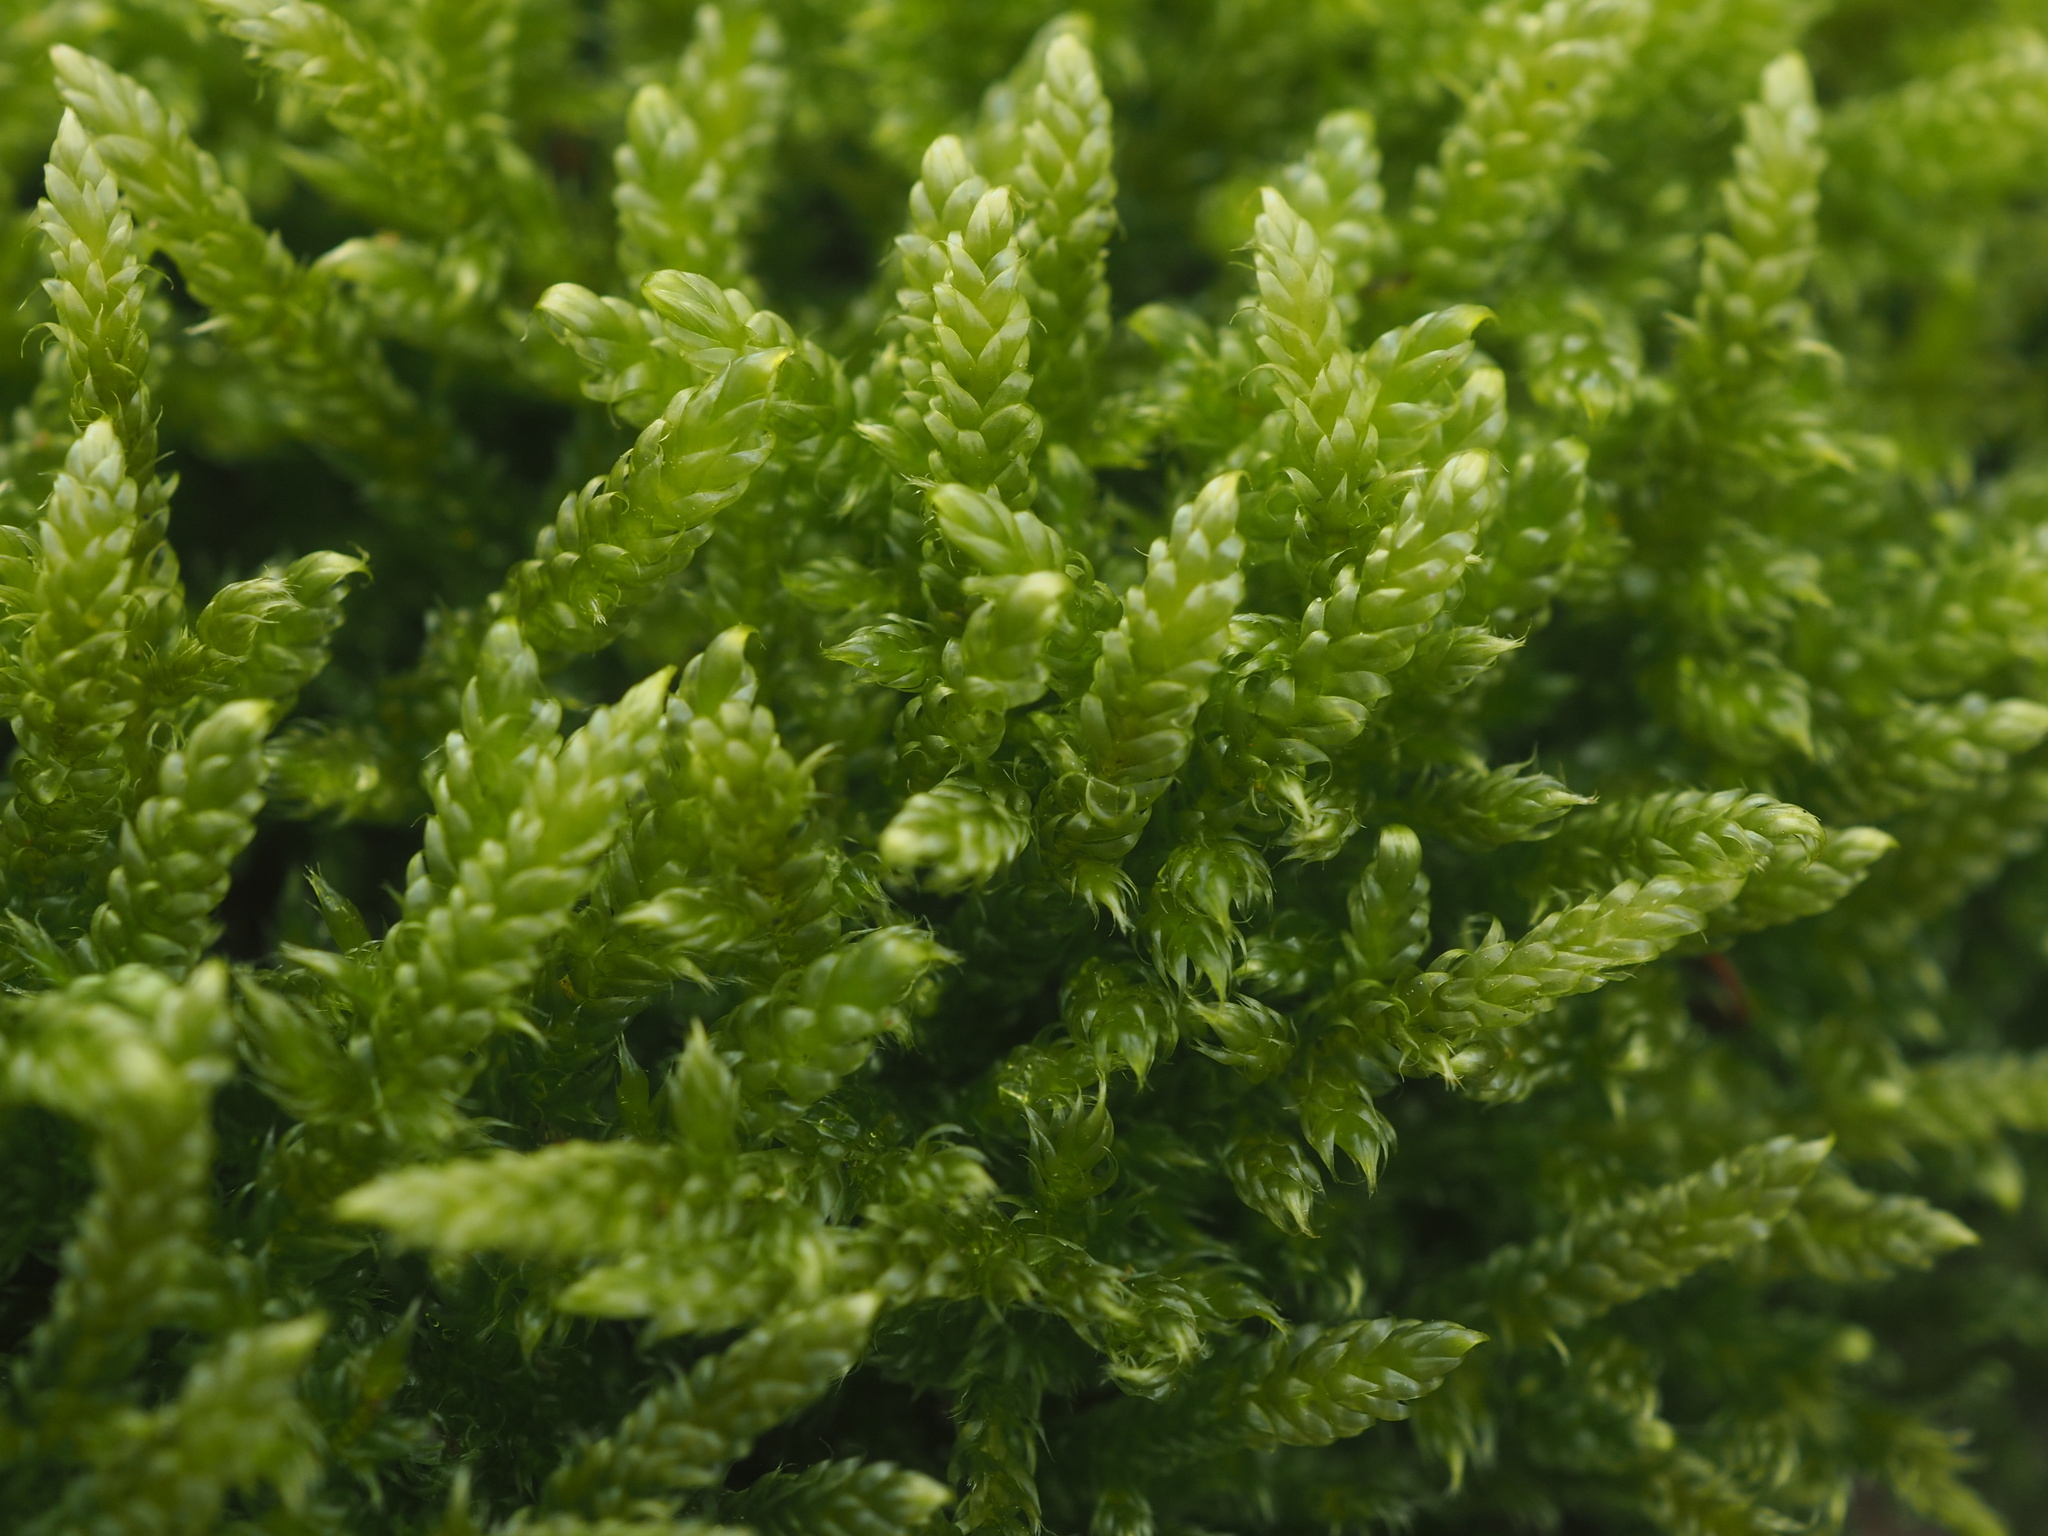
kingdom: Plantae
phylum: Bryophyta
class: Bryopsida
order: Hypnales
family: Hypnaceae
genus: Hypnum
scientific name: Hypnum cupressiforme
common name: Cypress-leaved plait-moss
